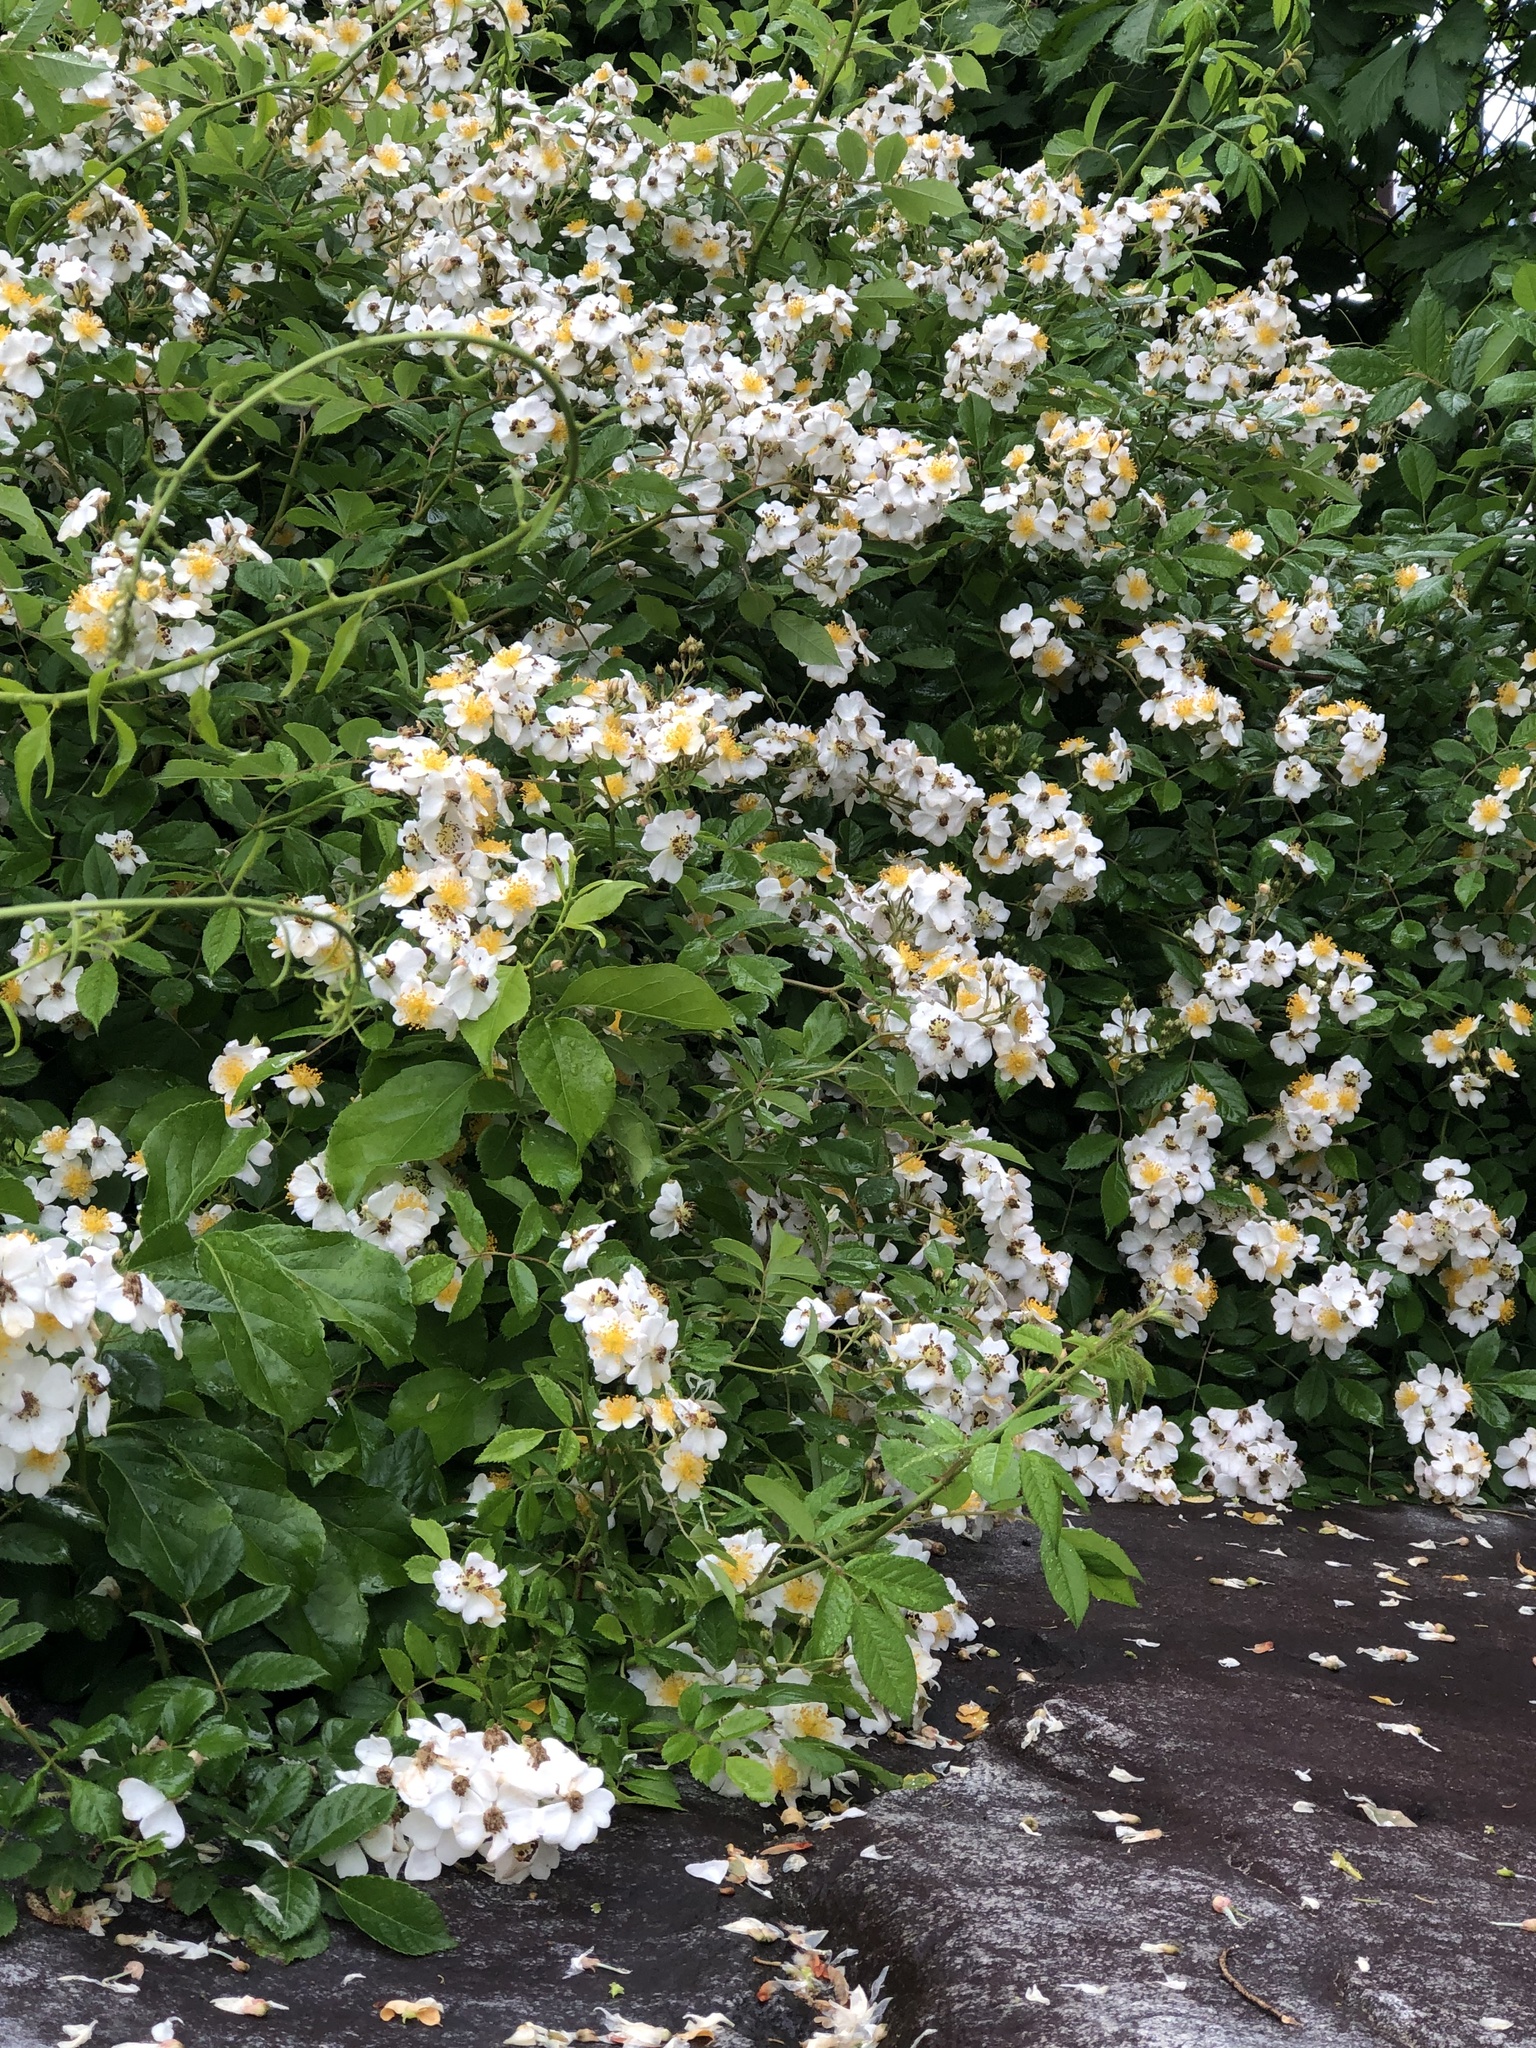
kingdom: Plantae
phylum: Tracheophyta
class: Magnoliopsida
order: Rosales
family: Rosaceae
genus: Rosa
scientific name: Rosa multiflora
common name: Multiflora rose
